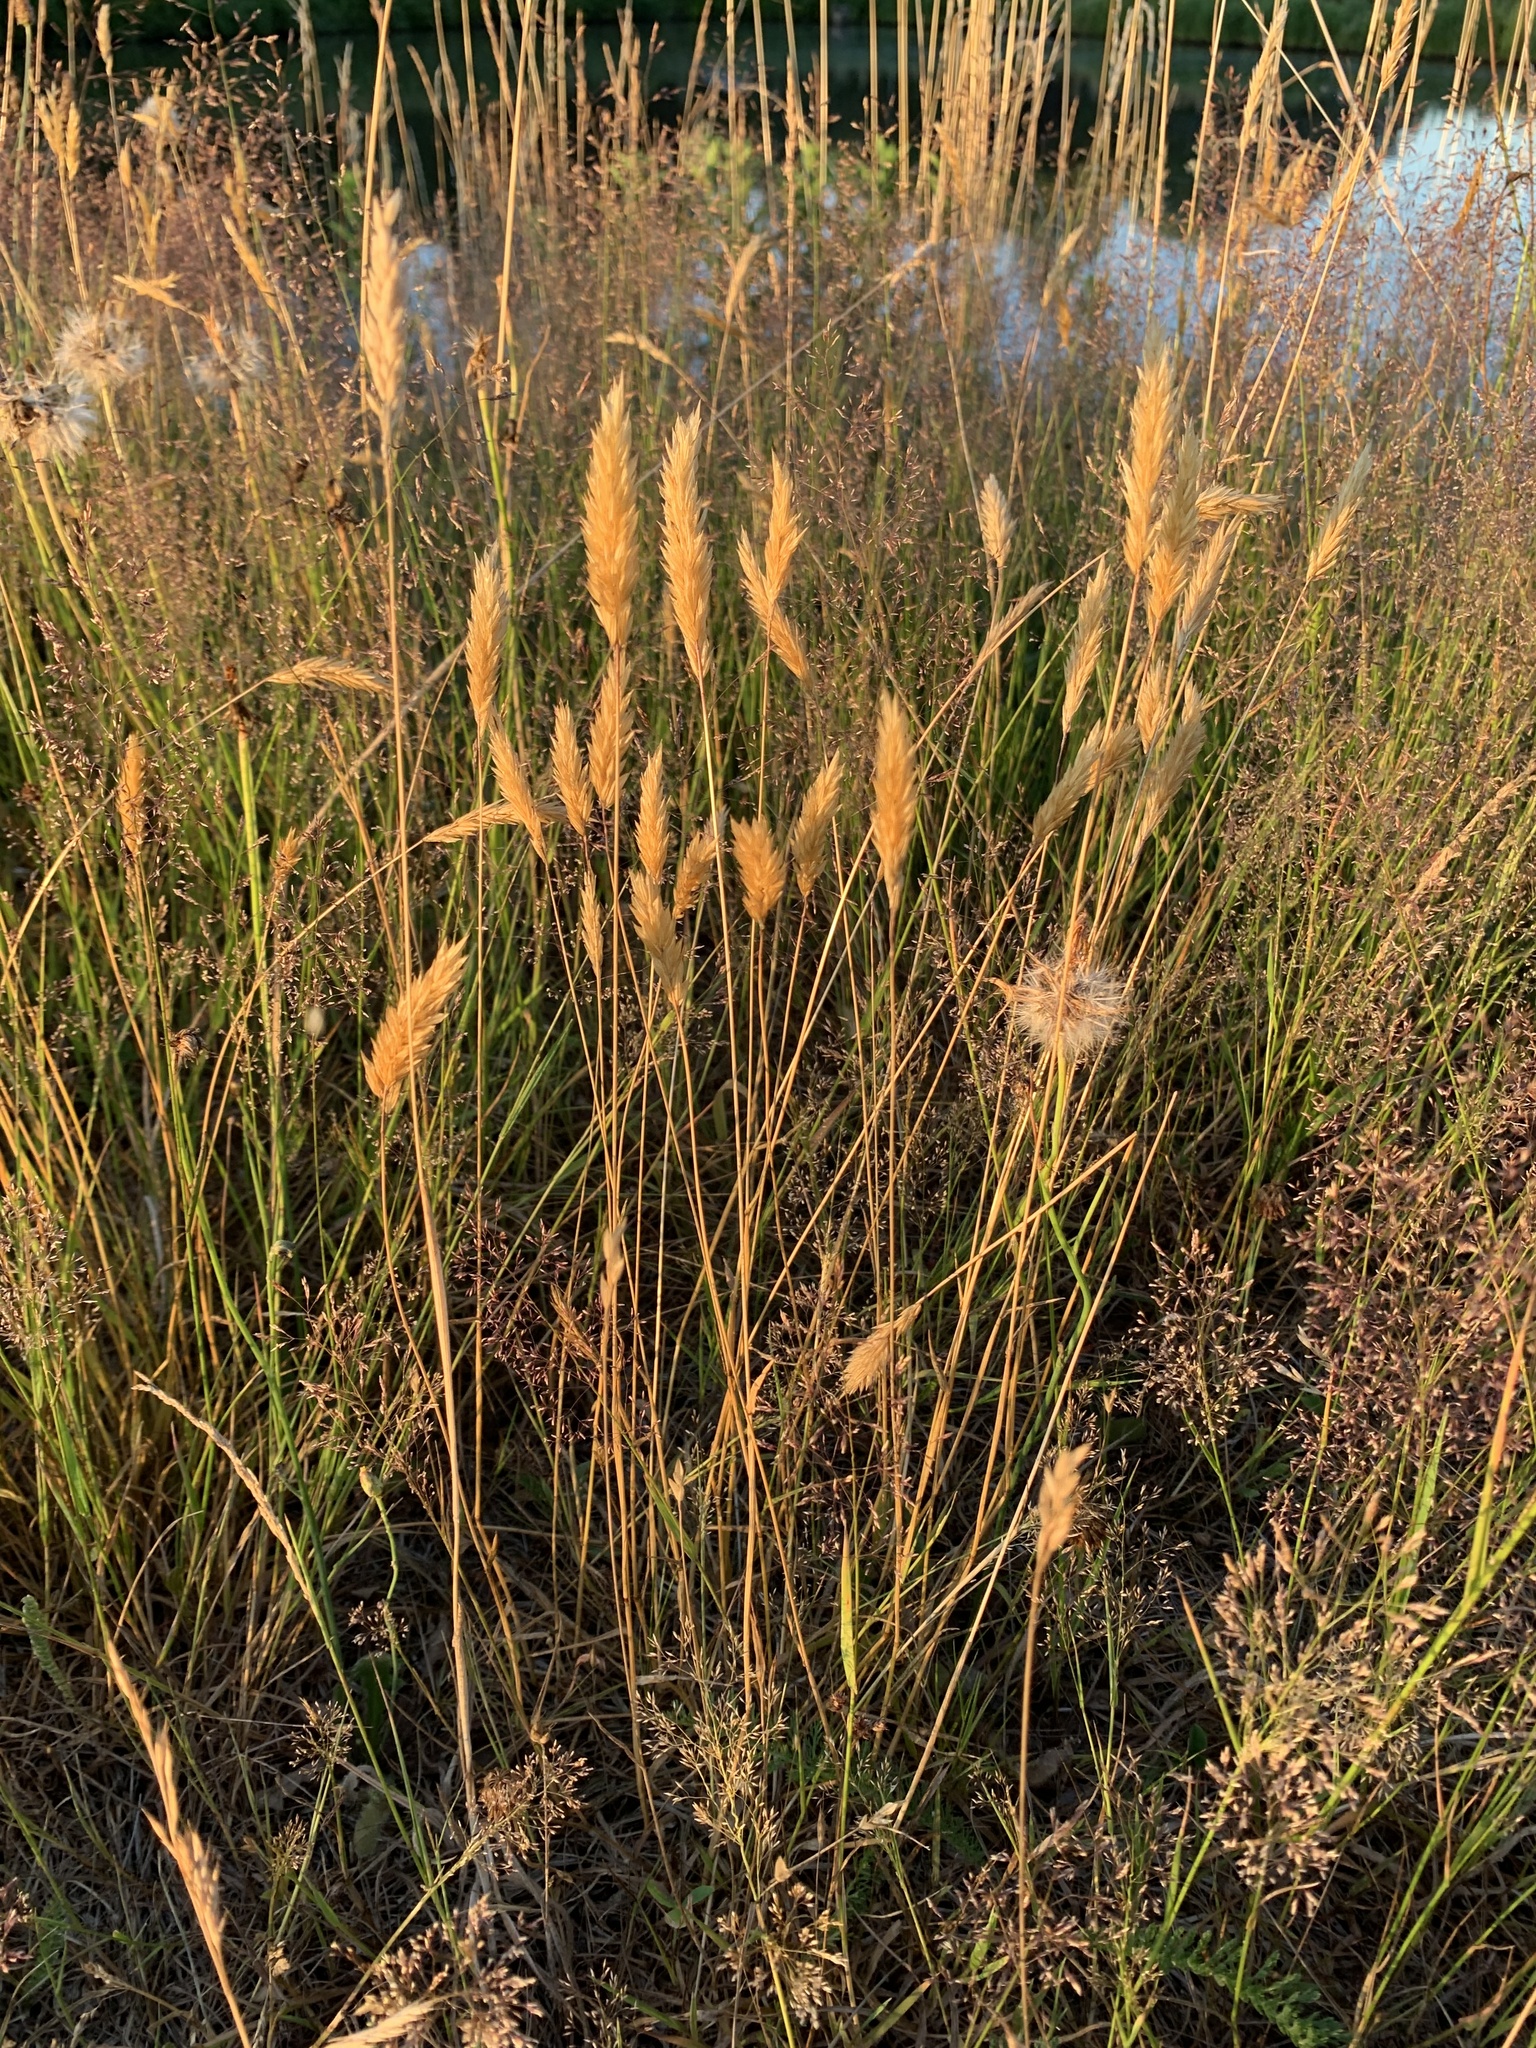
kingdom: Plantae
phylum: Tracheophyta
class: Liliopsida
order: Poales
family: Poaceae
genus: Anthoxanthum
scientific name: Anthoxanthum odoratum
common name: Sweet vernalgrass
